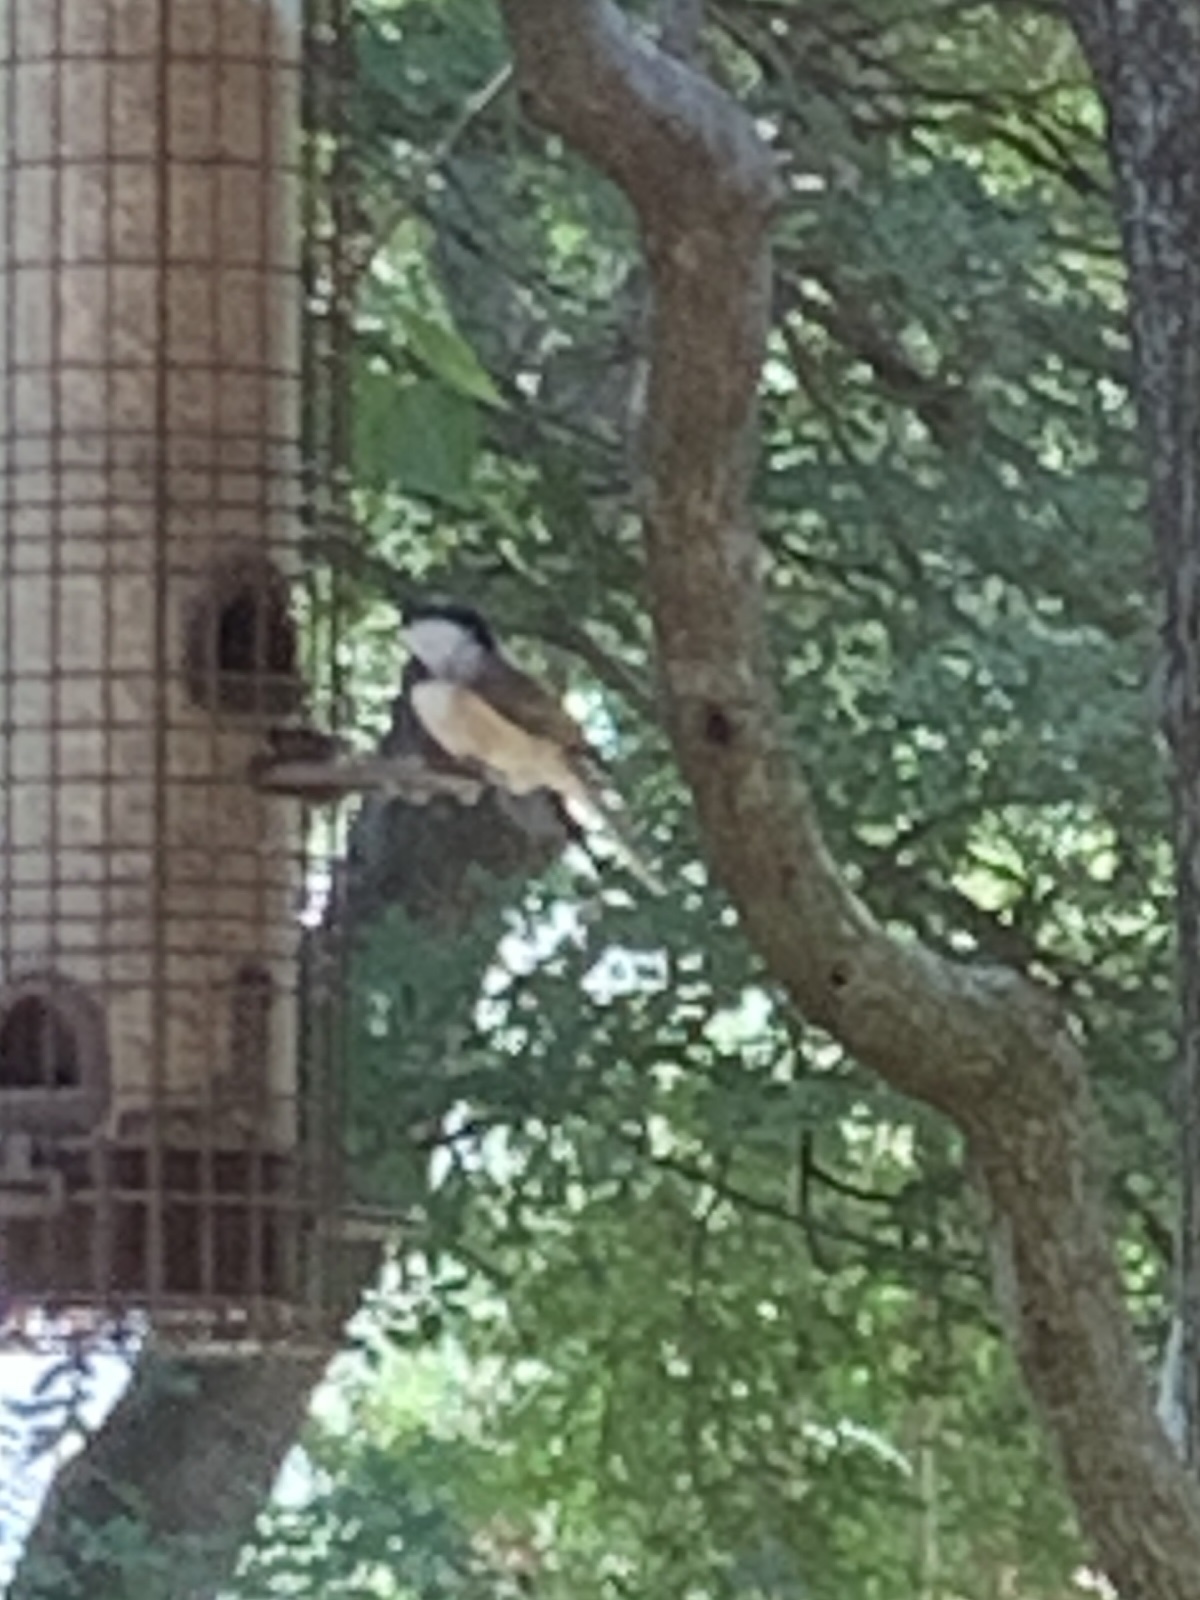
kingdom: Animalia
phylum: Chordata
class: Aves
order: Passeriformes
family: Paridae
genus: Poecile
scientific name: Poecile carolinensis
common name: Carolina chickadee
